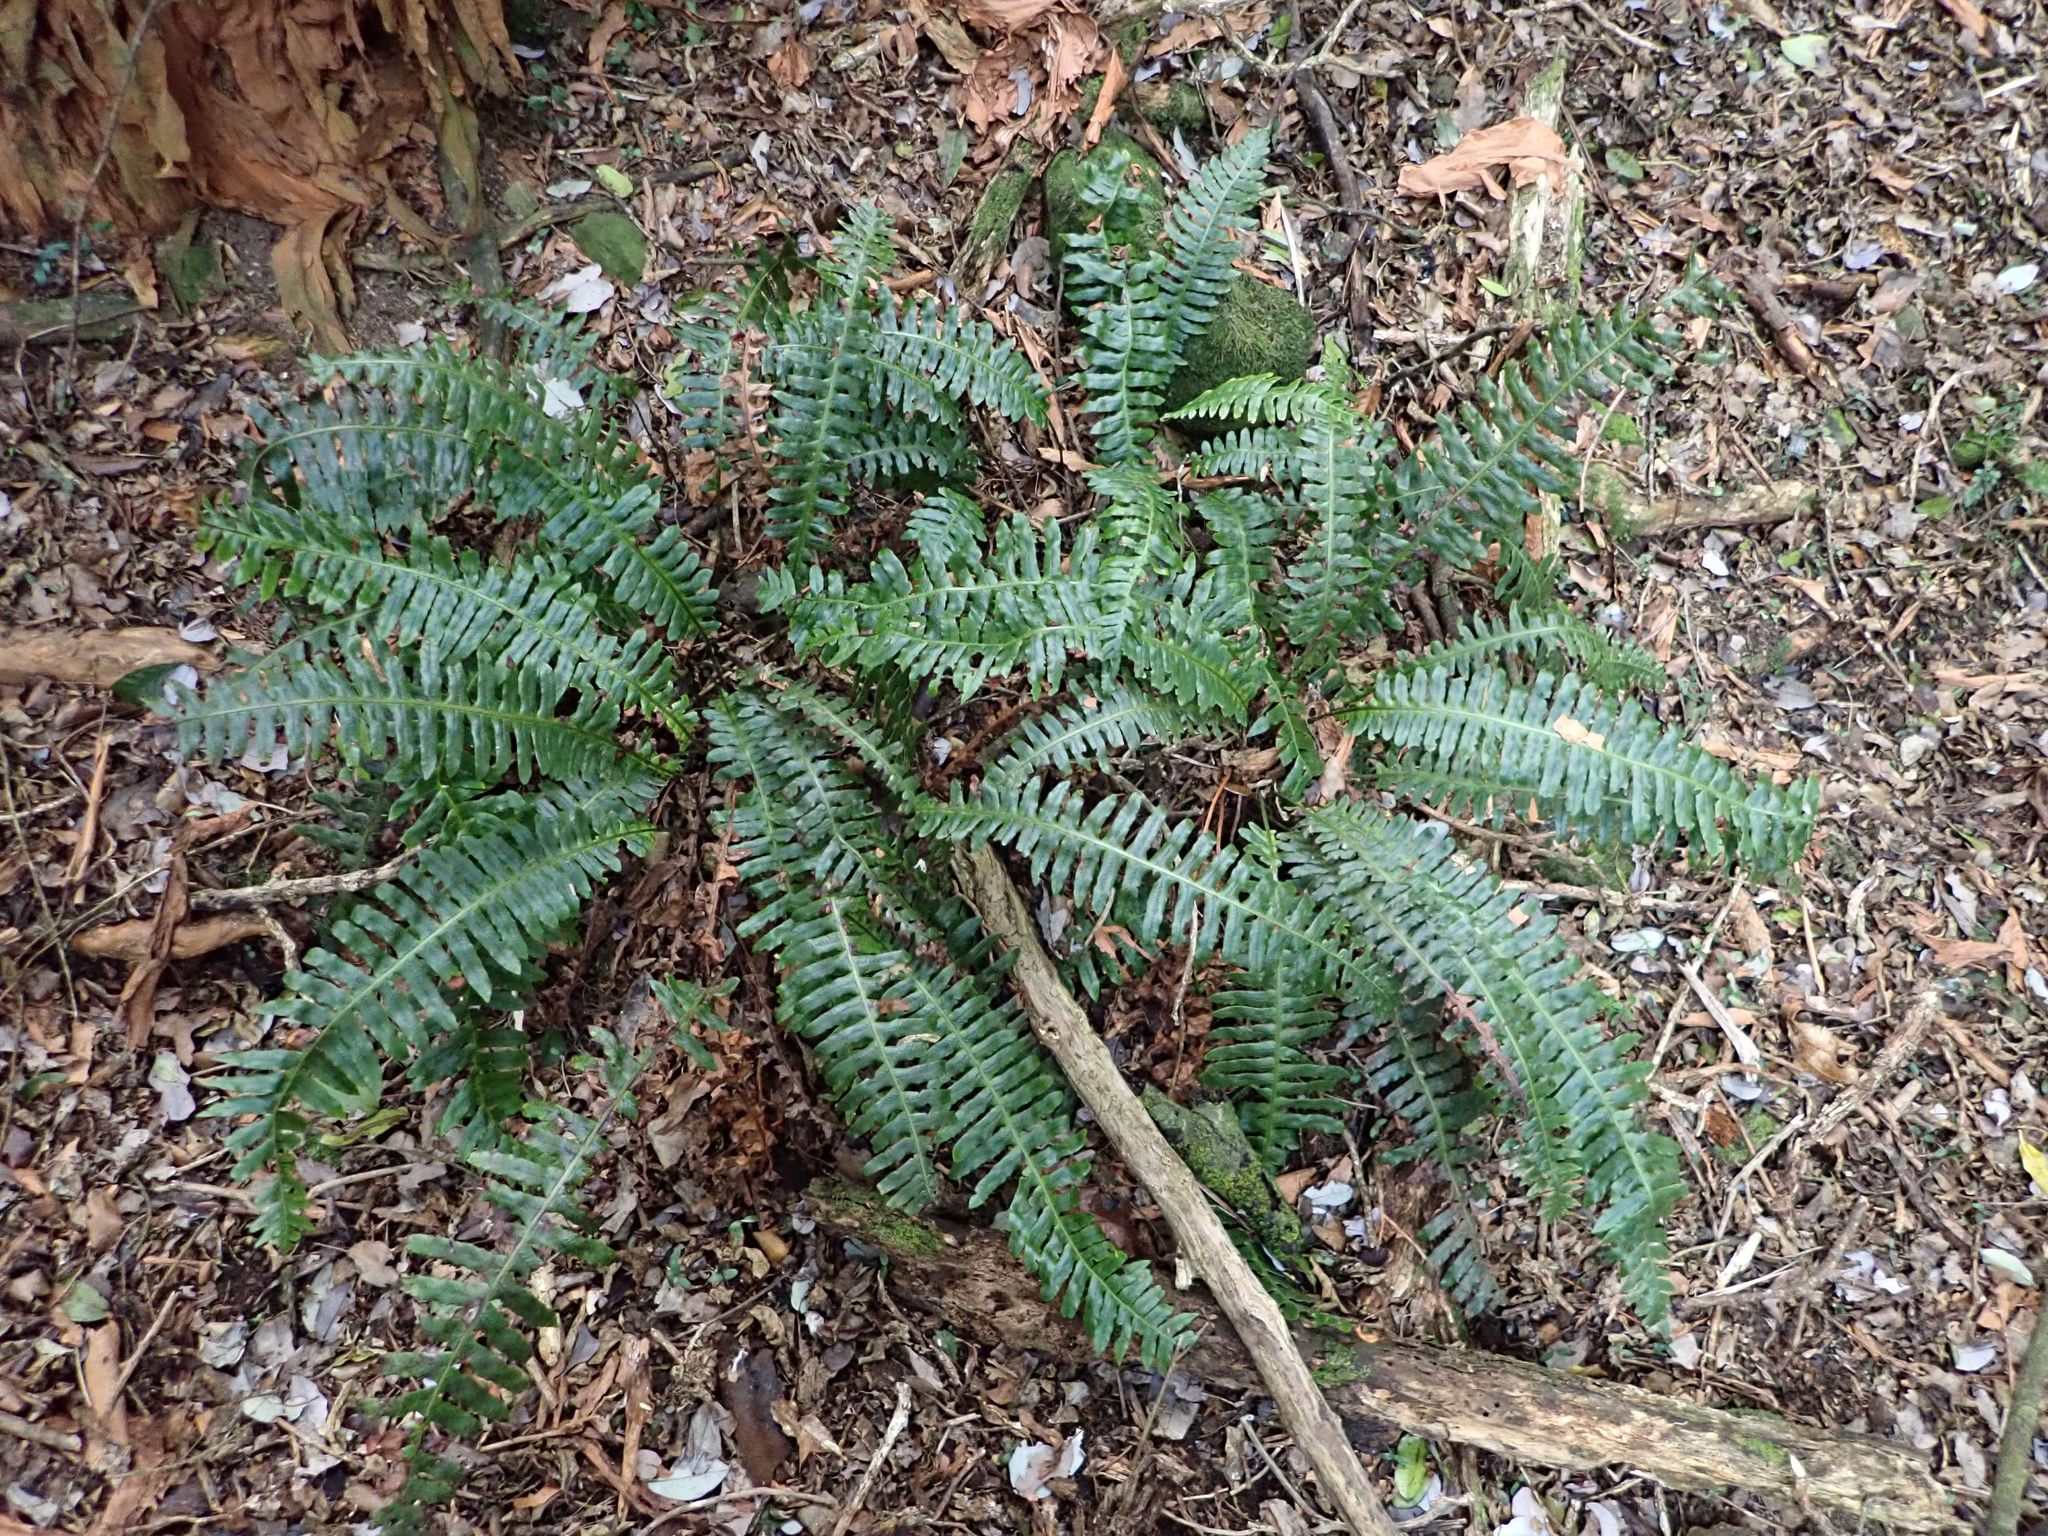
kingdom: Plantae
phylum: Tracheophyta
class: Polypodiopsida
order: Polypodiales
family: Blechnaceae
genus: Lomaria
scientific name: Lomaria discolor
